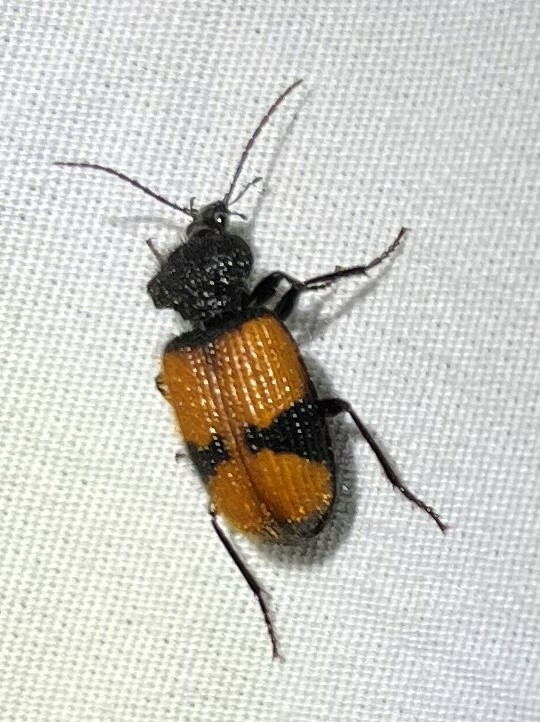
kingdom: Animalia
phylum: Arthropoda
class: Insecta
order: Coleoptera
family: Carabidae
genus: Panagaeus
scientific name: Panagaeus sallei
